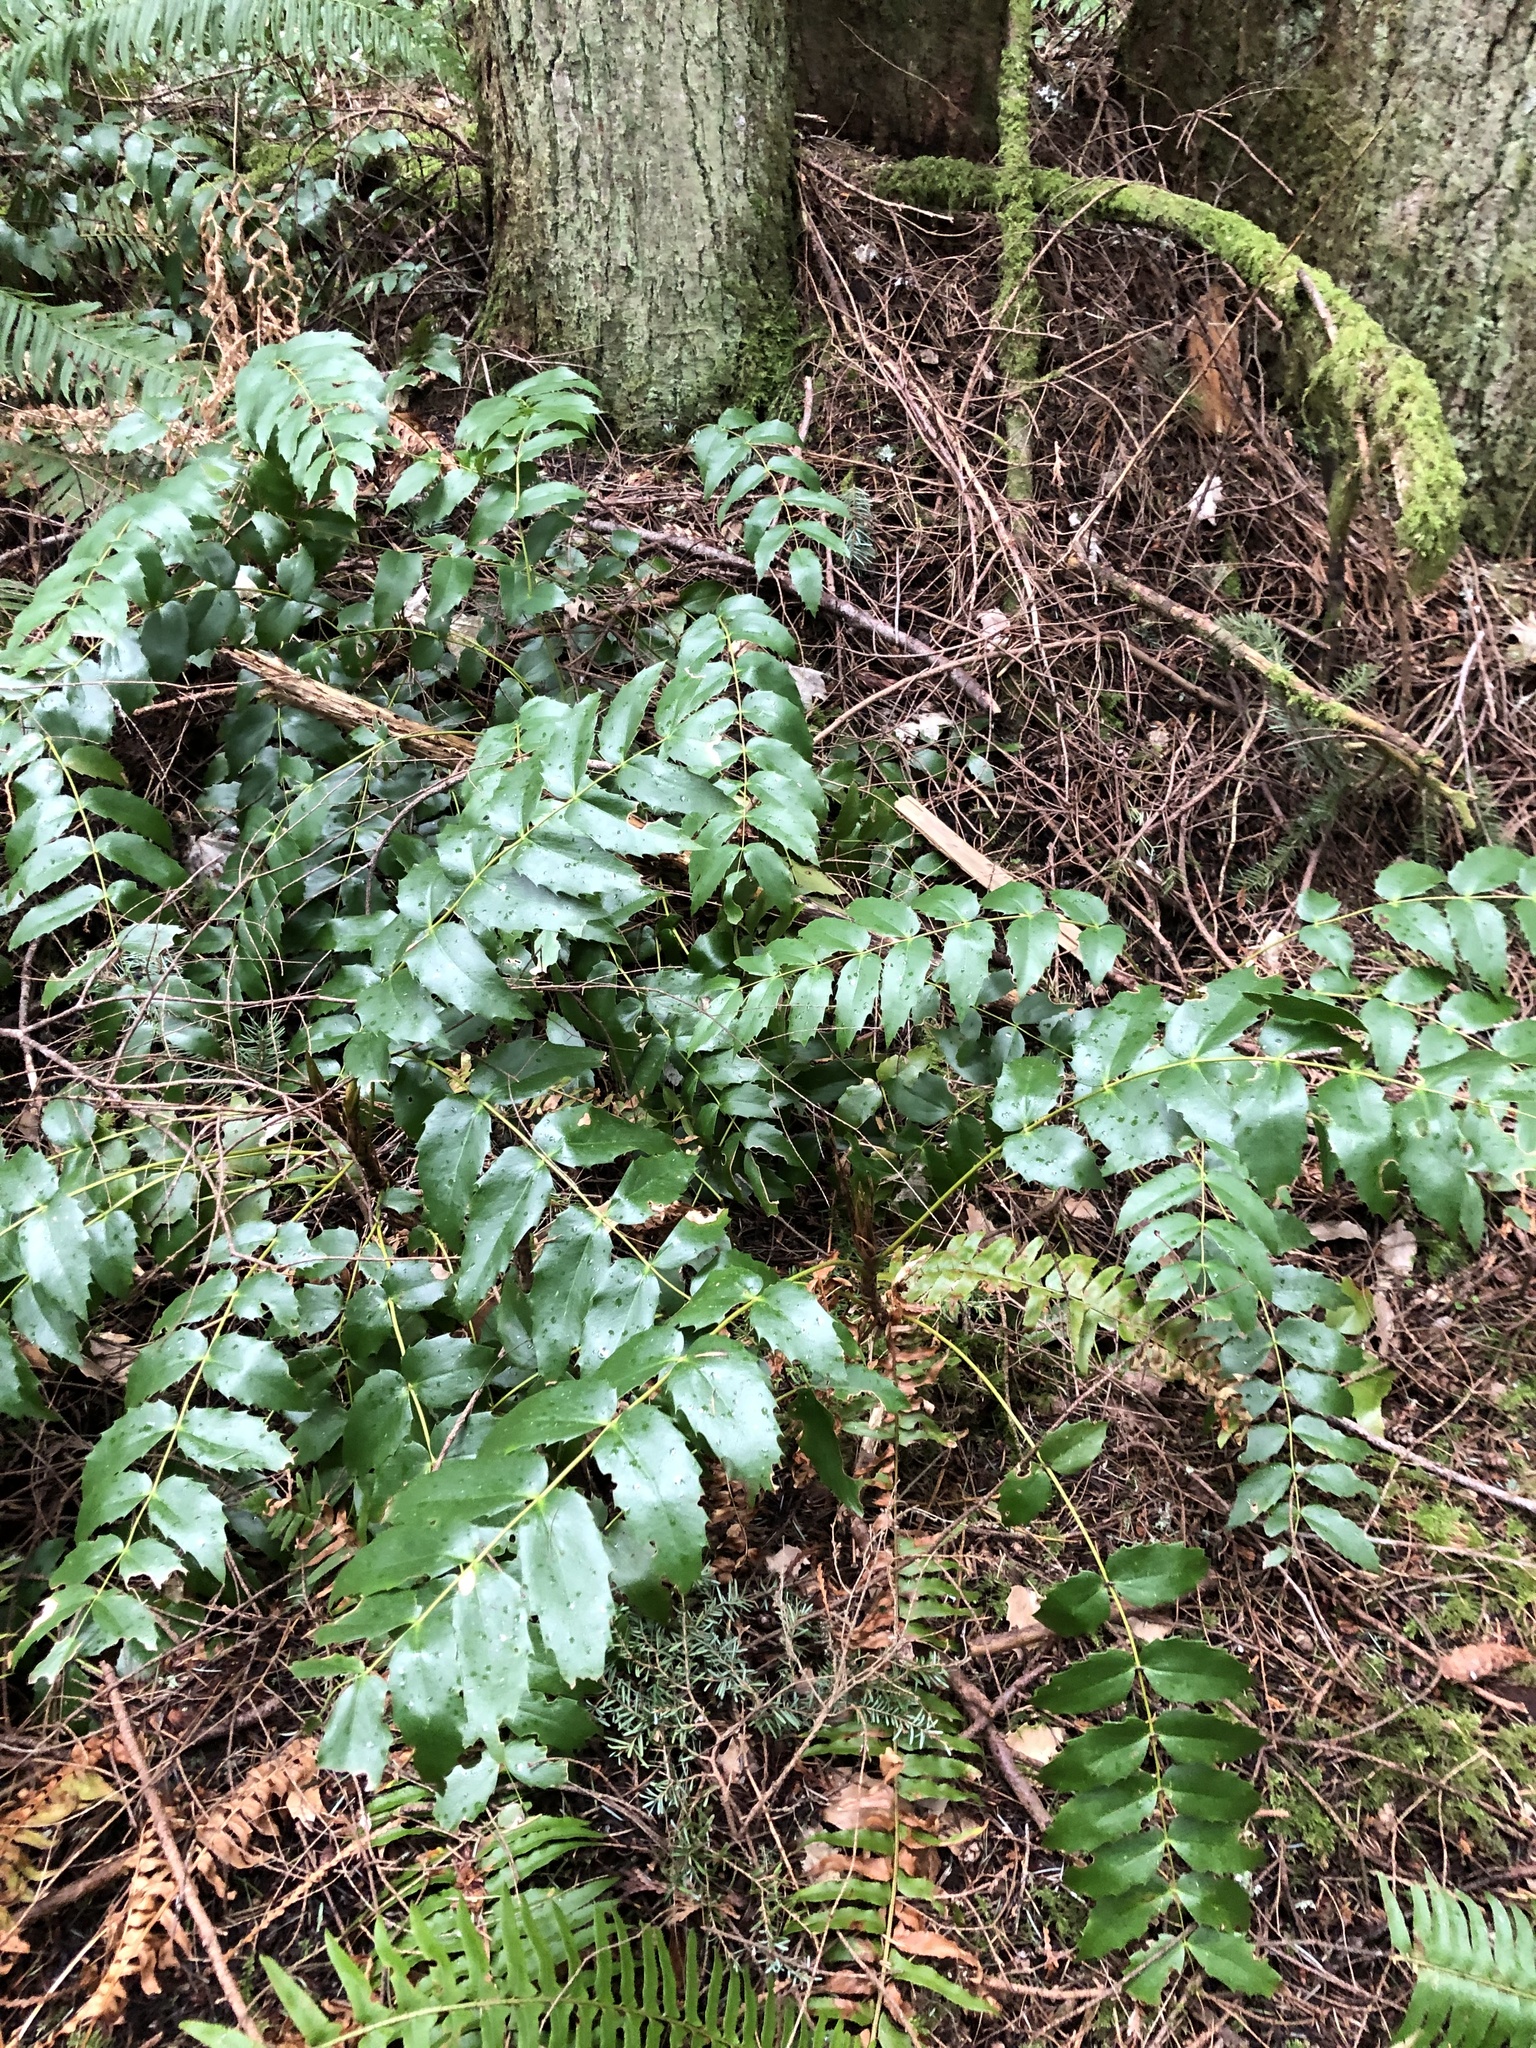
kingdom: Plantae
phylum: Tracheophyta
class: Magnoliopsida
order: Ranunculales
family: Berberidaceae
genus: Mahonia
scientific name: Mahonia nervosa
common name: Cascade oregon-grape
